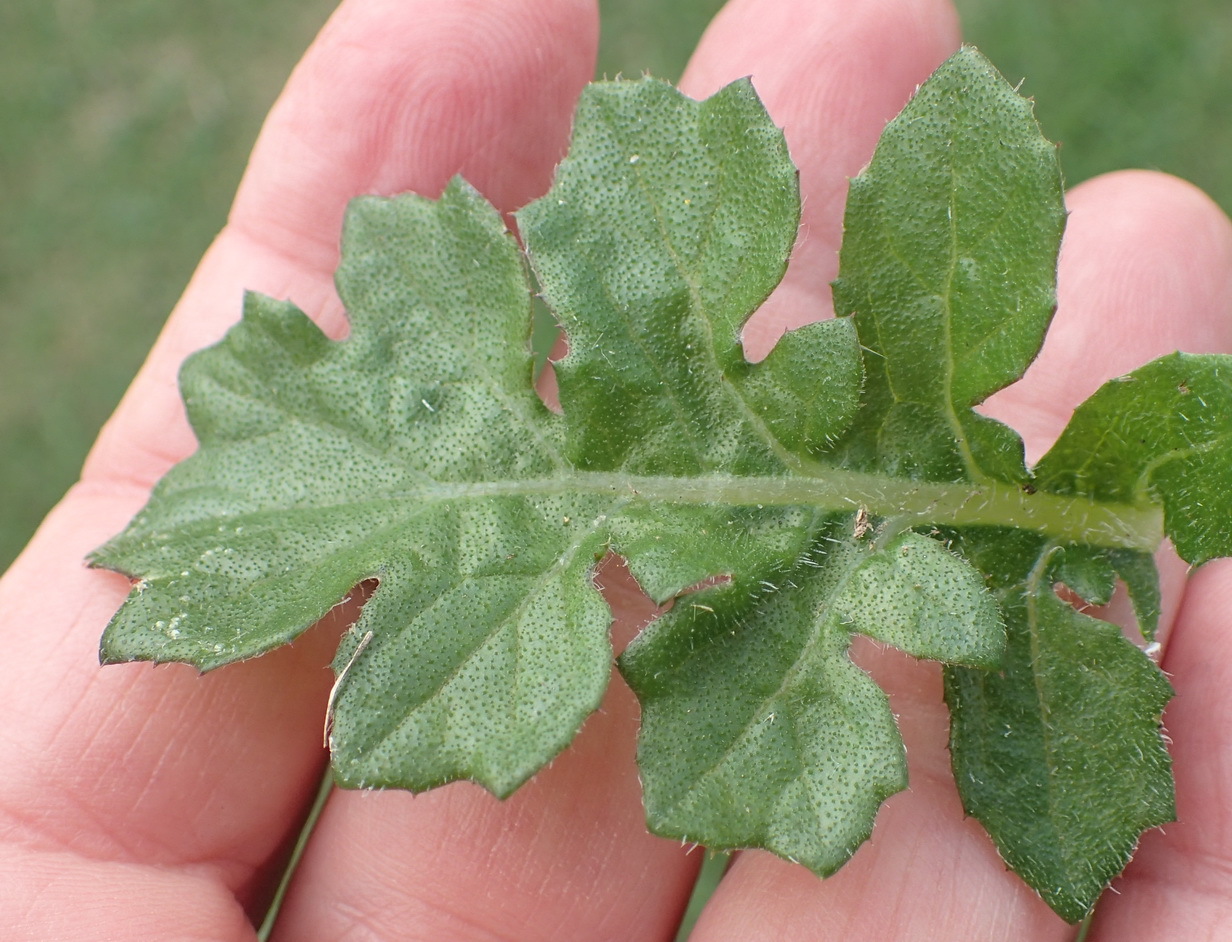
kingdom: Plantae
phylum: Tracheophyta
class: Magnoliopsida
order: Asterales
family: Asteraceae
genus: Arctotheca
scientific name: Arctotheca prostrata
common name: Capeweed
